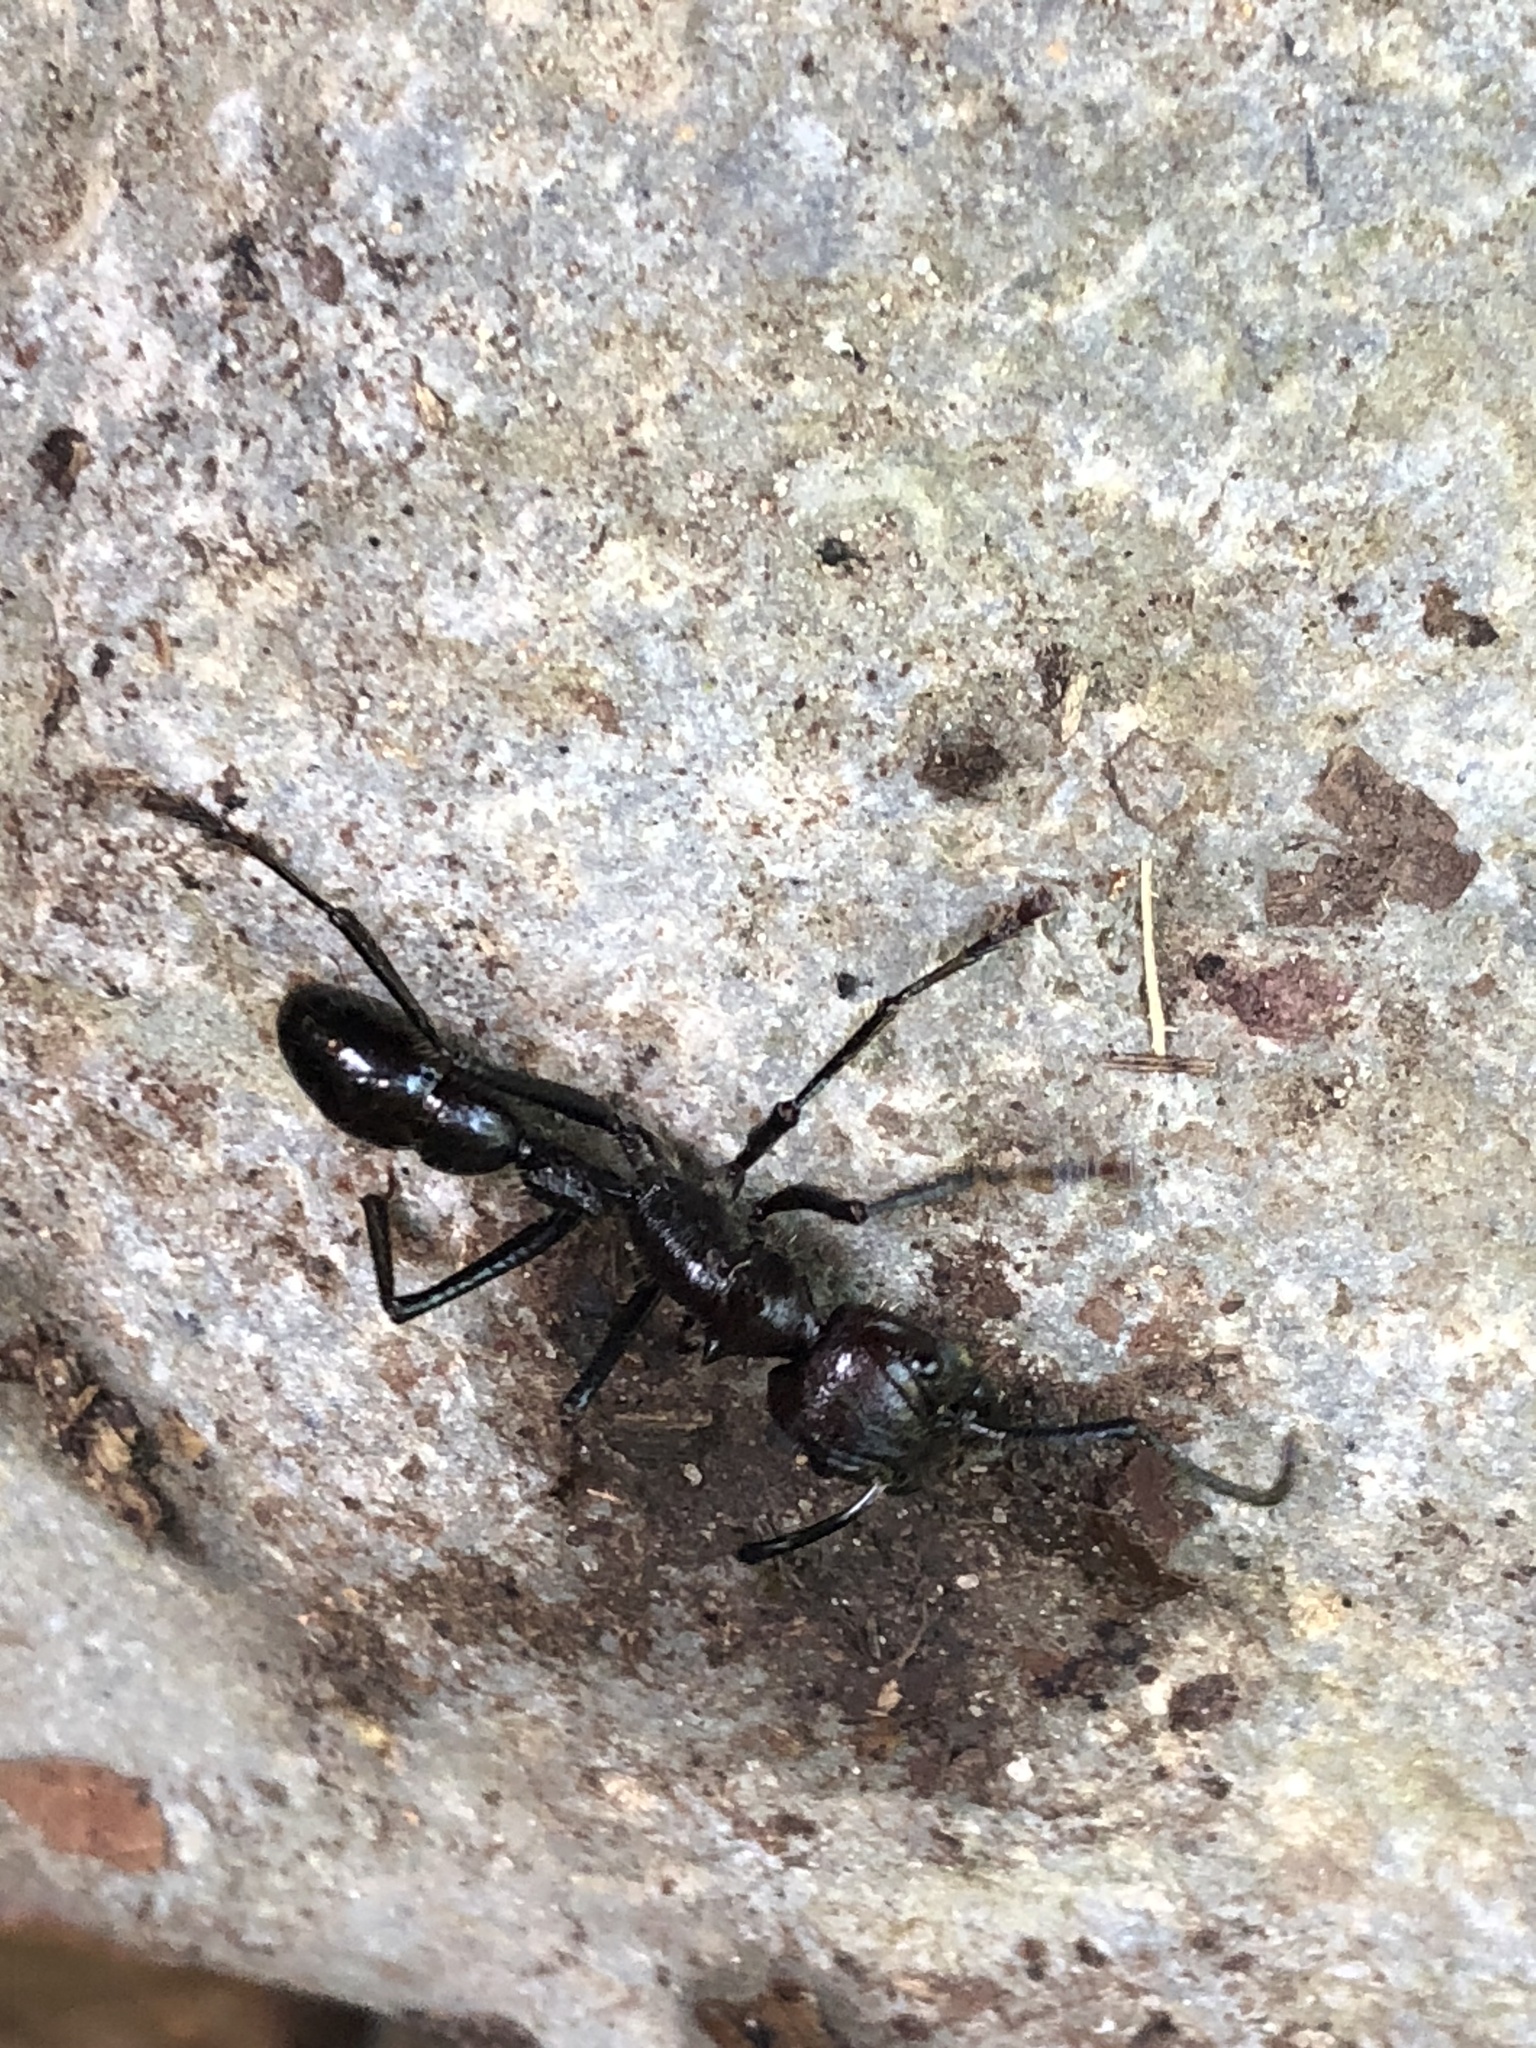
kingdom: Animalia
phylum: Arthropoda
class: Insecta
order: Hymenoptera
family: Formicidae
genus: Paraponera
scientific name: Paraponera clavata
